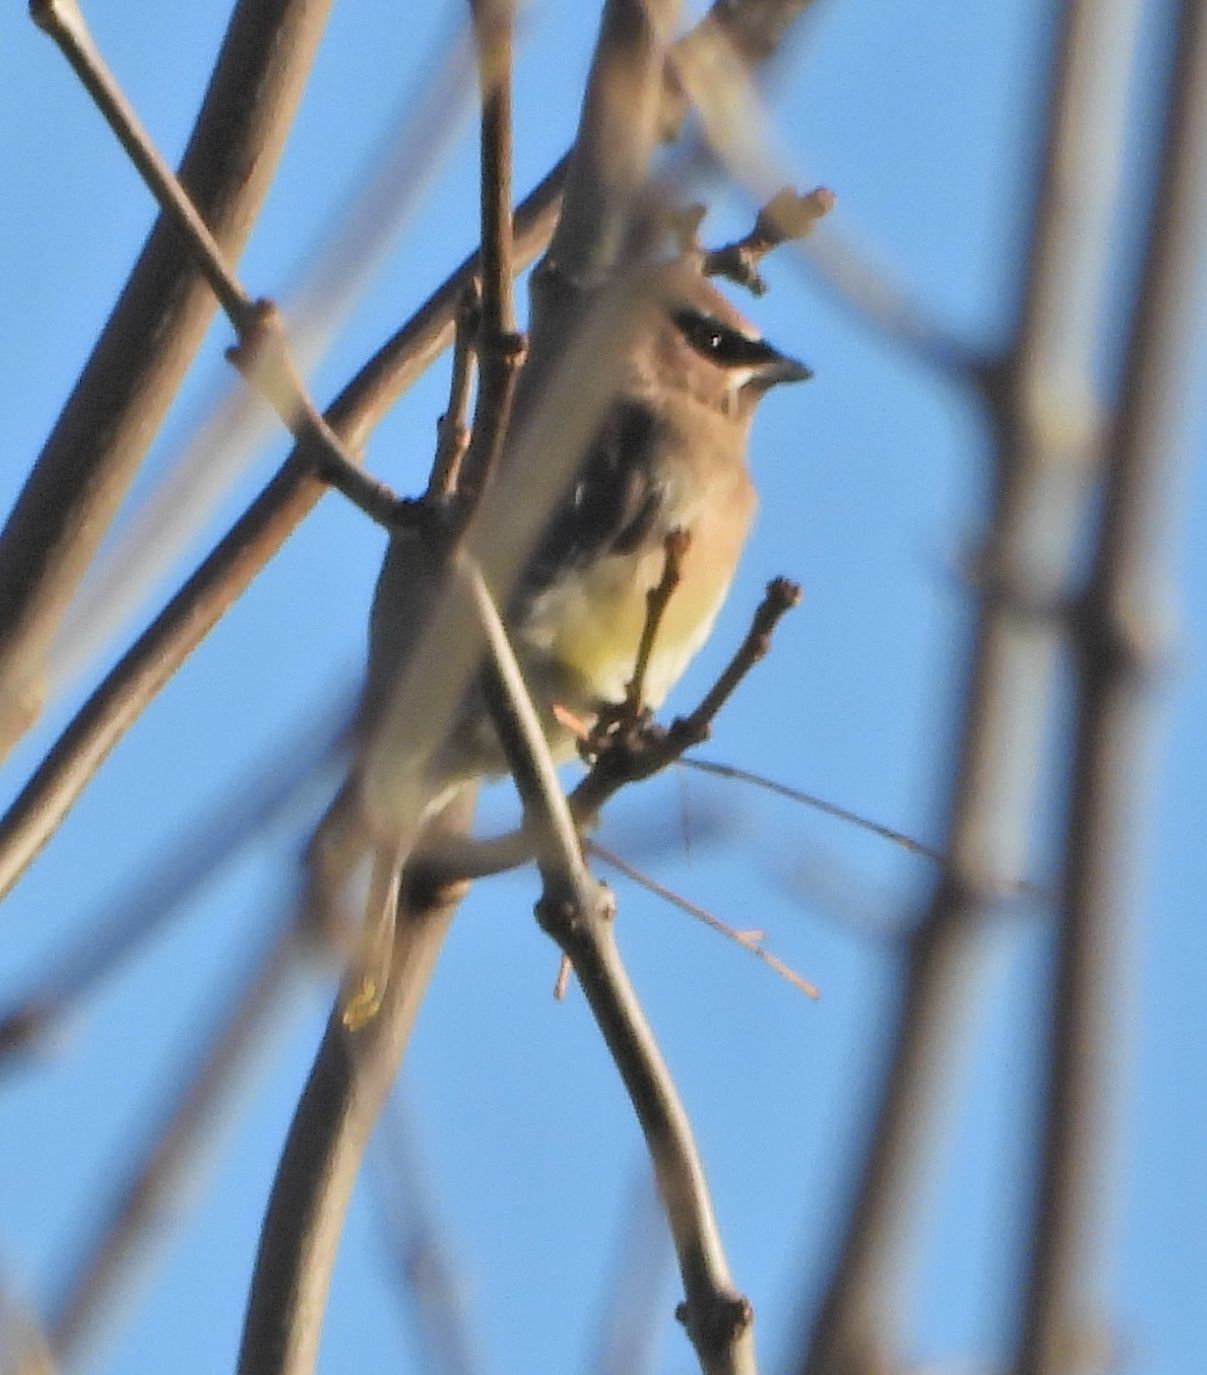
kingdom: Animalia
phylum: Chordata
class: Aves
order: Passeriformes
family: Bombycillidae
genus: Bombycilla
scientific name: Bombycilla cedrorum
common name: Cedar waxwing
